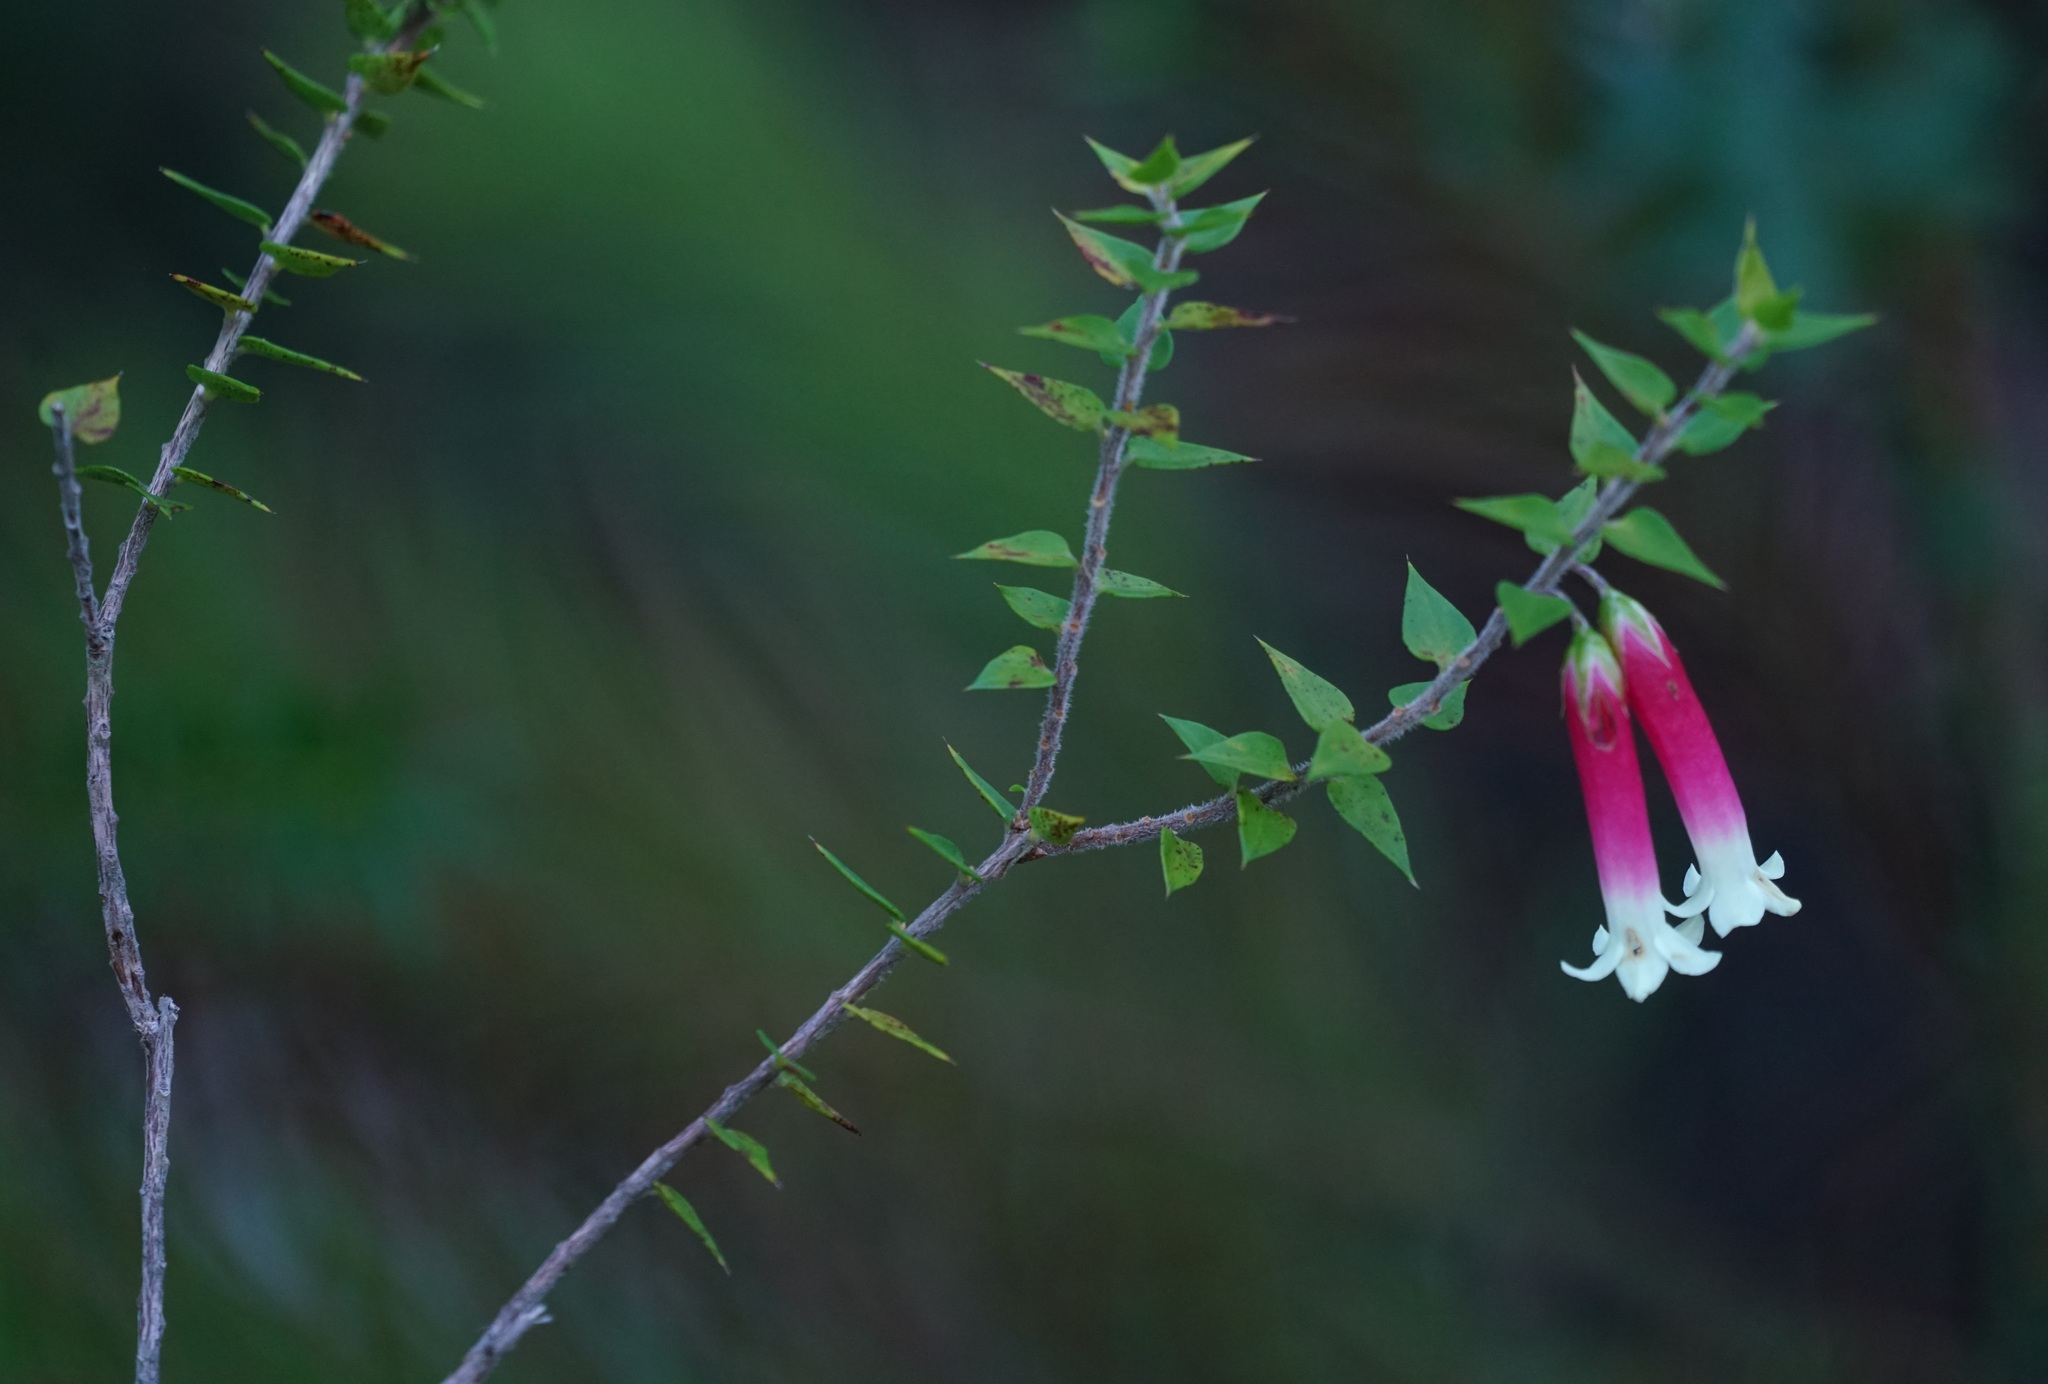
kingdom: Plantae
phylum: Tracheophyta
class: Magnoliopsida
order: Ericales
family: Ericaceae
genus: Epacris
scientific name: Epacris longiflora
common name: Fuchsia-heath
